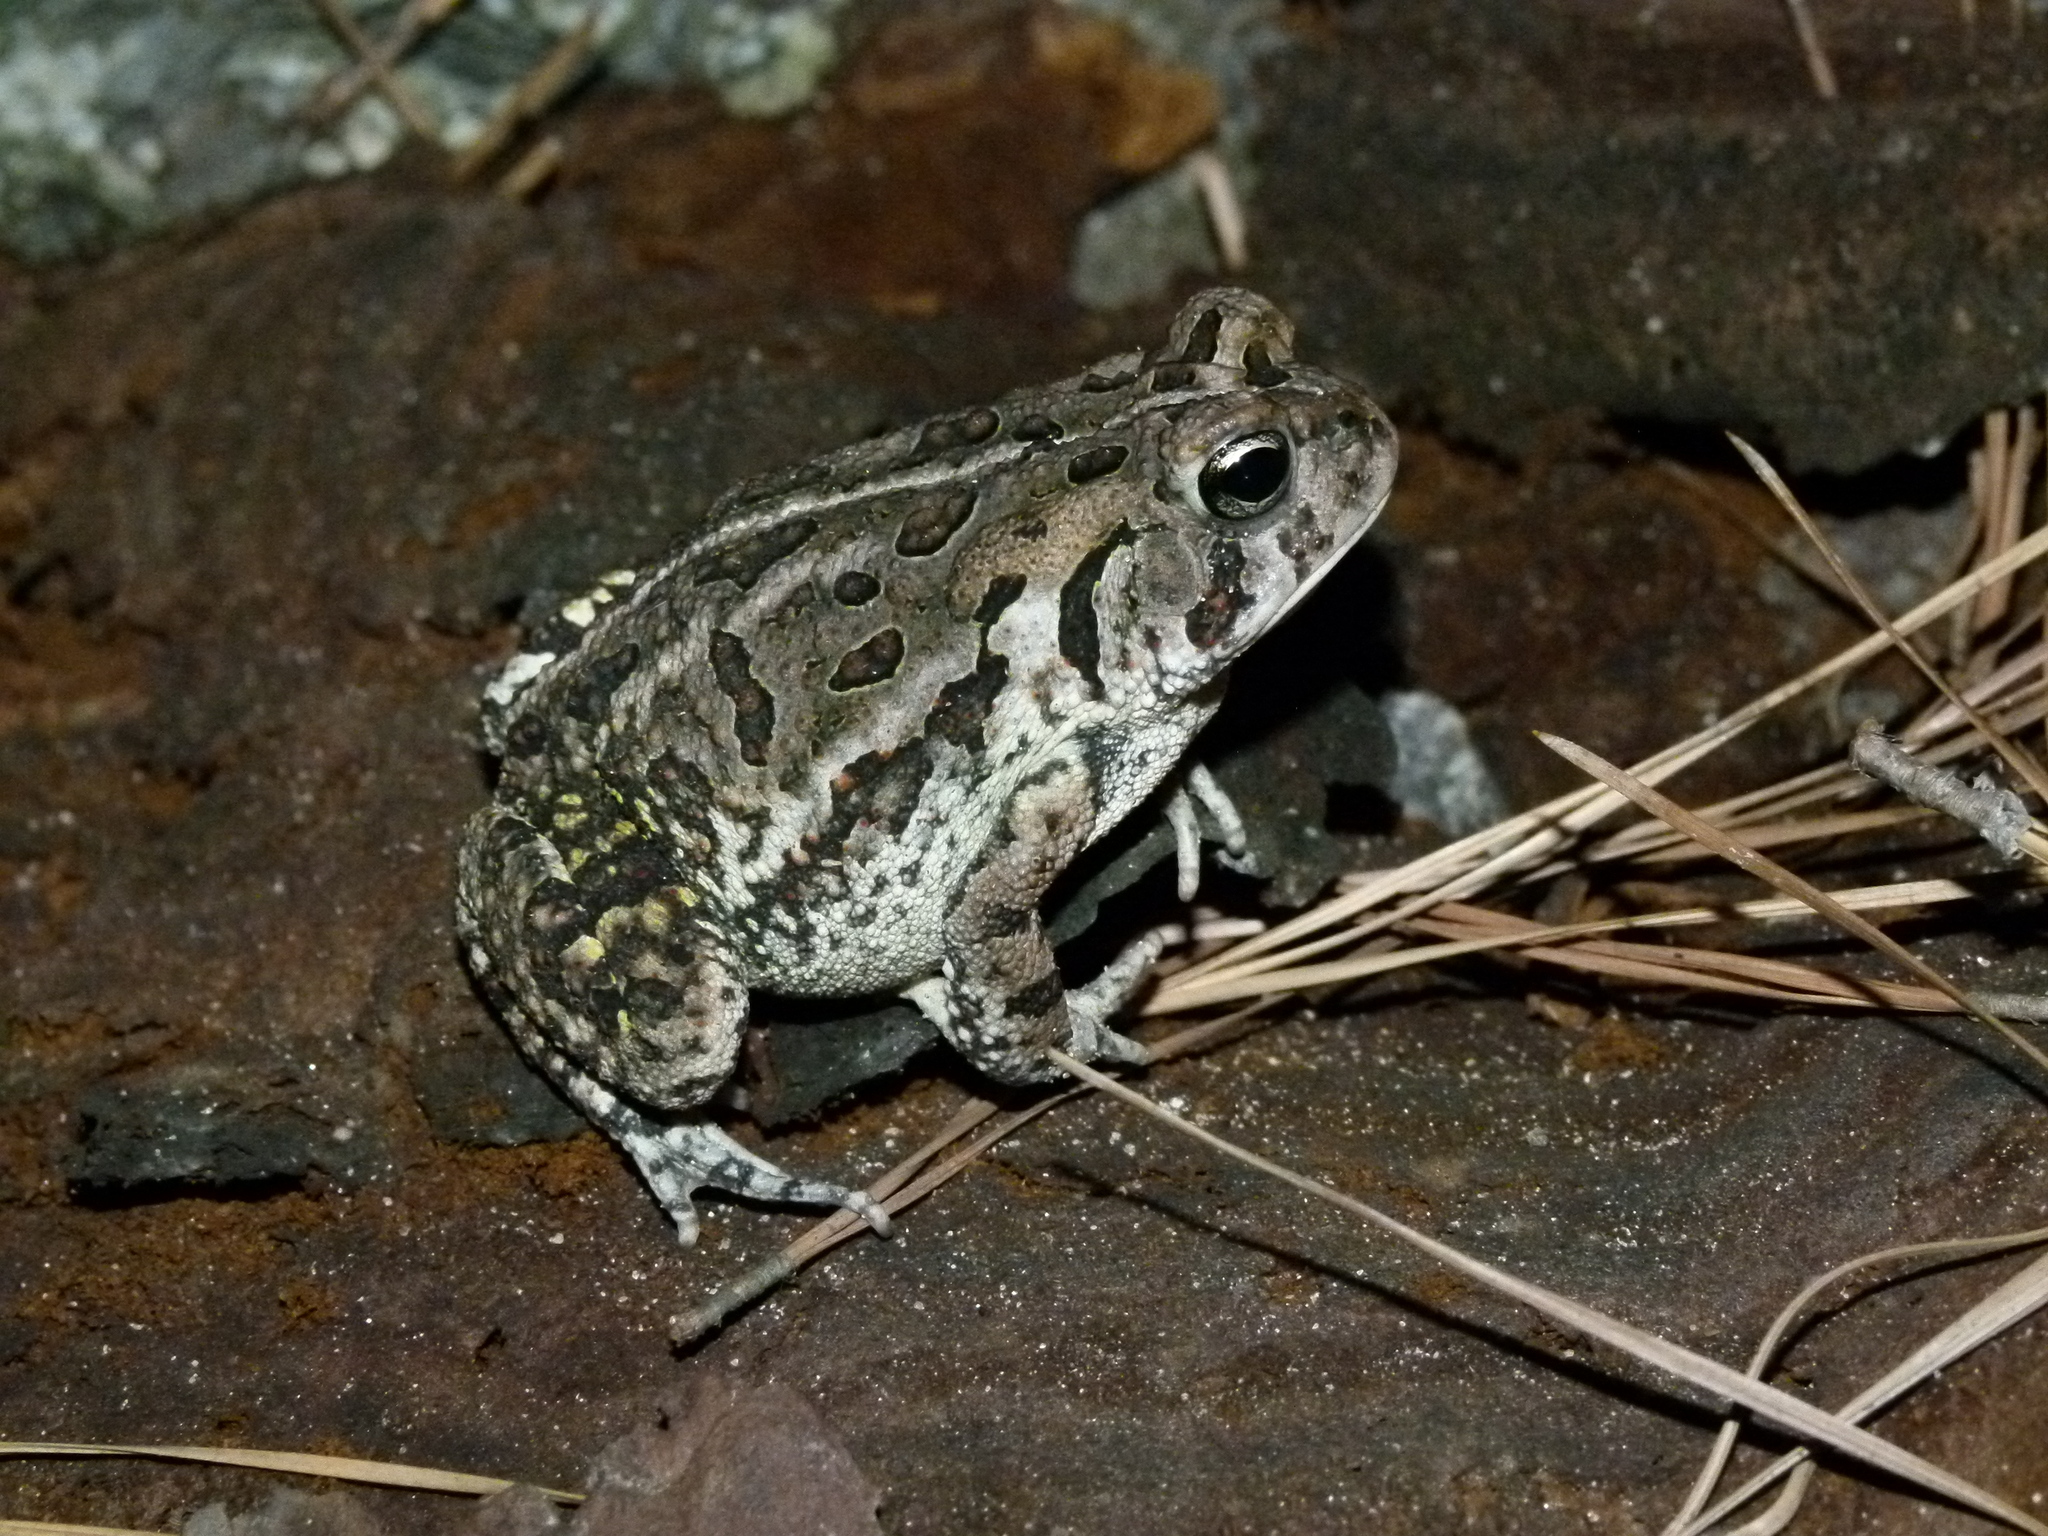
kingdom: Animalia
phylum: Chordata
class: Amphibia
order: Anura
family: Bufonidae
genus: Anaxyrus
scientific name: Anaxyrus fowleri
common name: Fowler's toad
